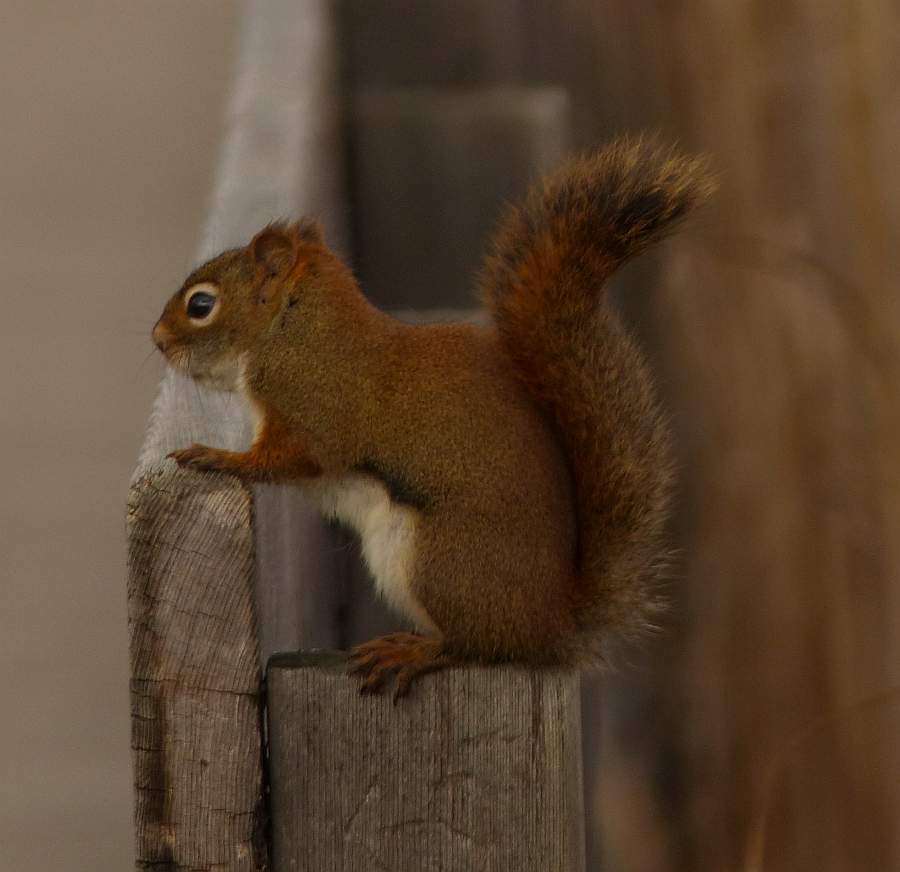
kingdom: Animalia
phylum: Chordata
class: Mammalia
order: Rodentia
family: Sciuridae
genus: Tamiasciurus
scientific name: Tamiasciurus hudsonicus
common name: Red squirrel
